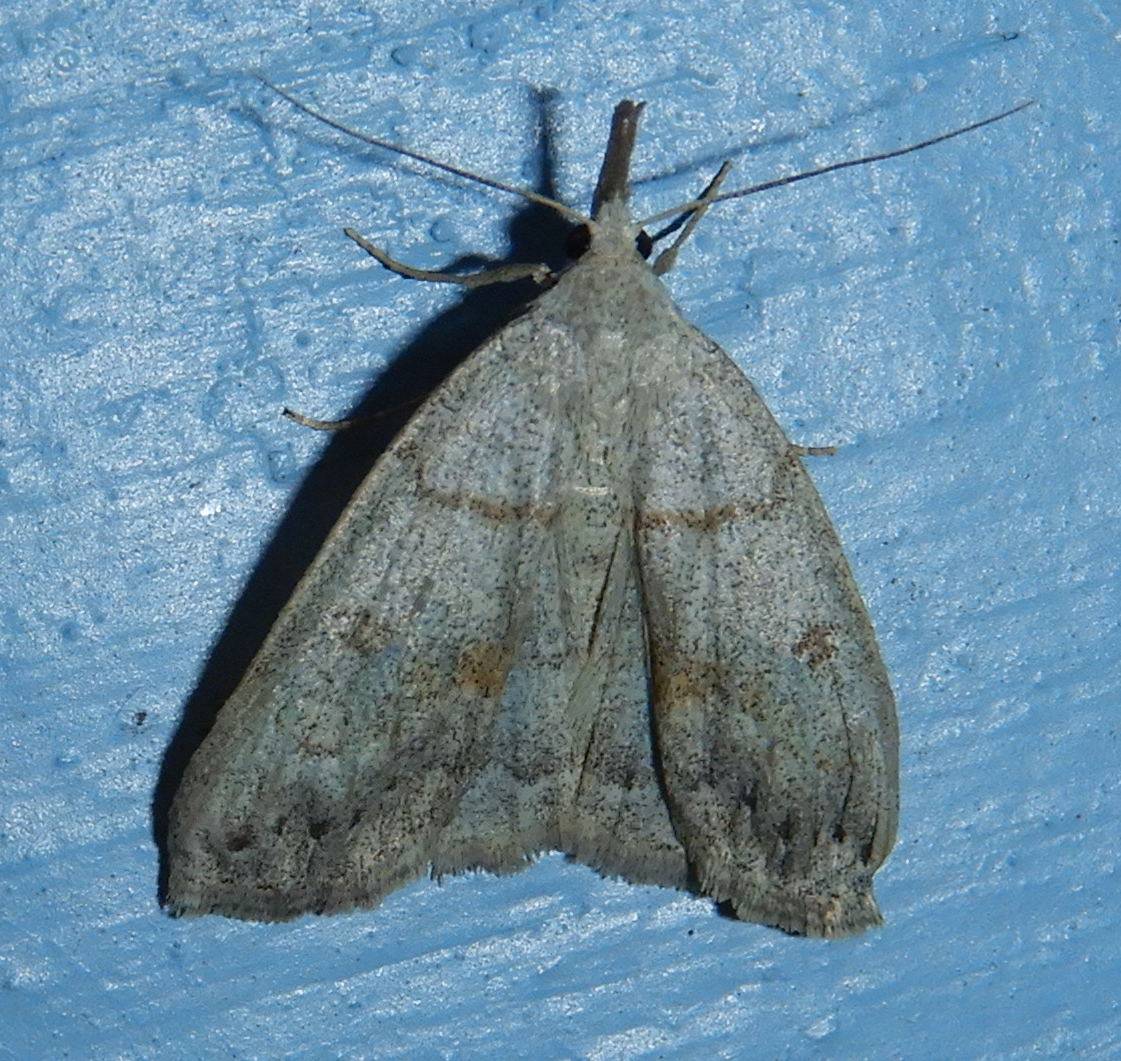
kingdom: Animalia
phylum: Arthropoda
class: Insecta
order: Lepidoptera
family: Erebidae
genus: Macrochilo
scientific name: Macrochilo morbidalis
